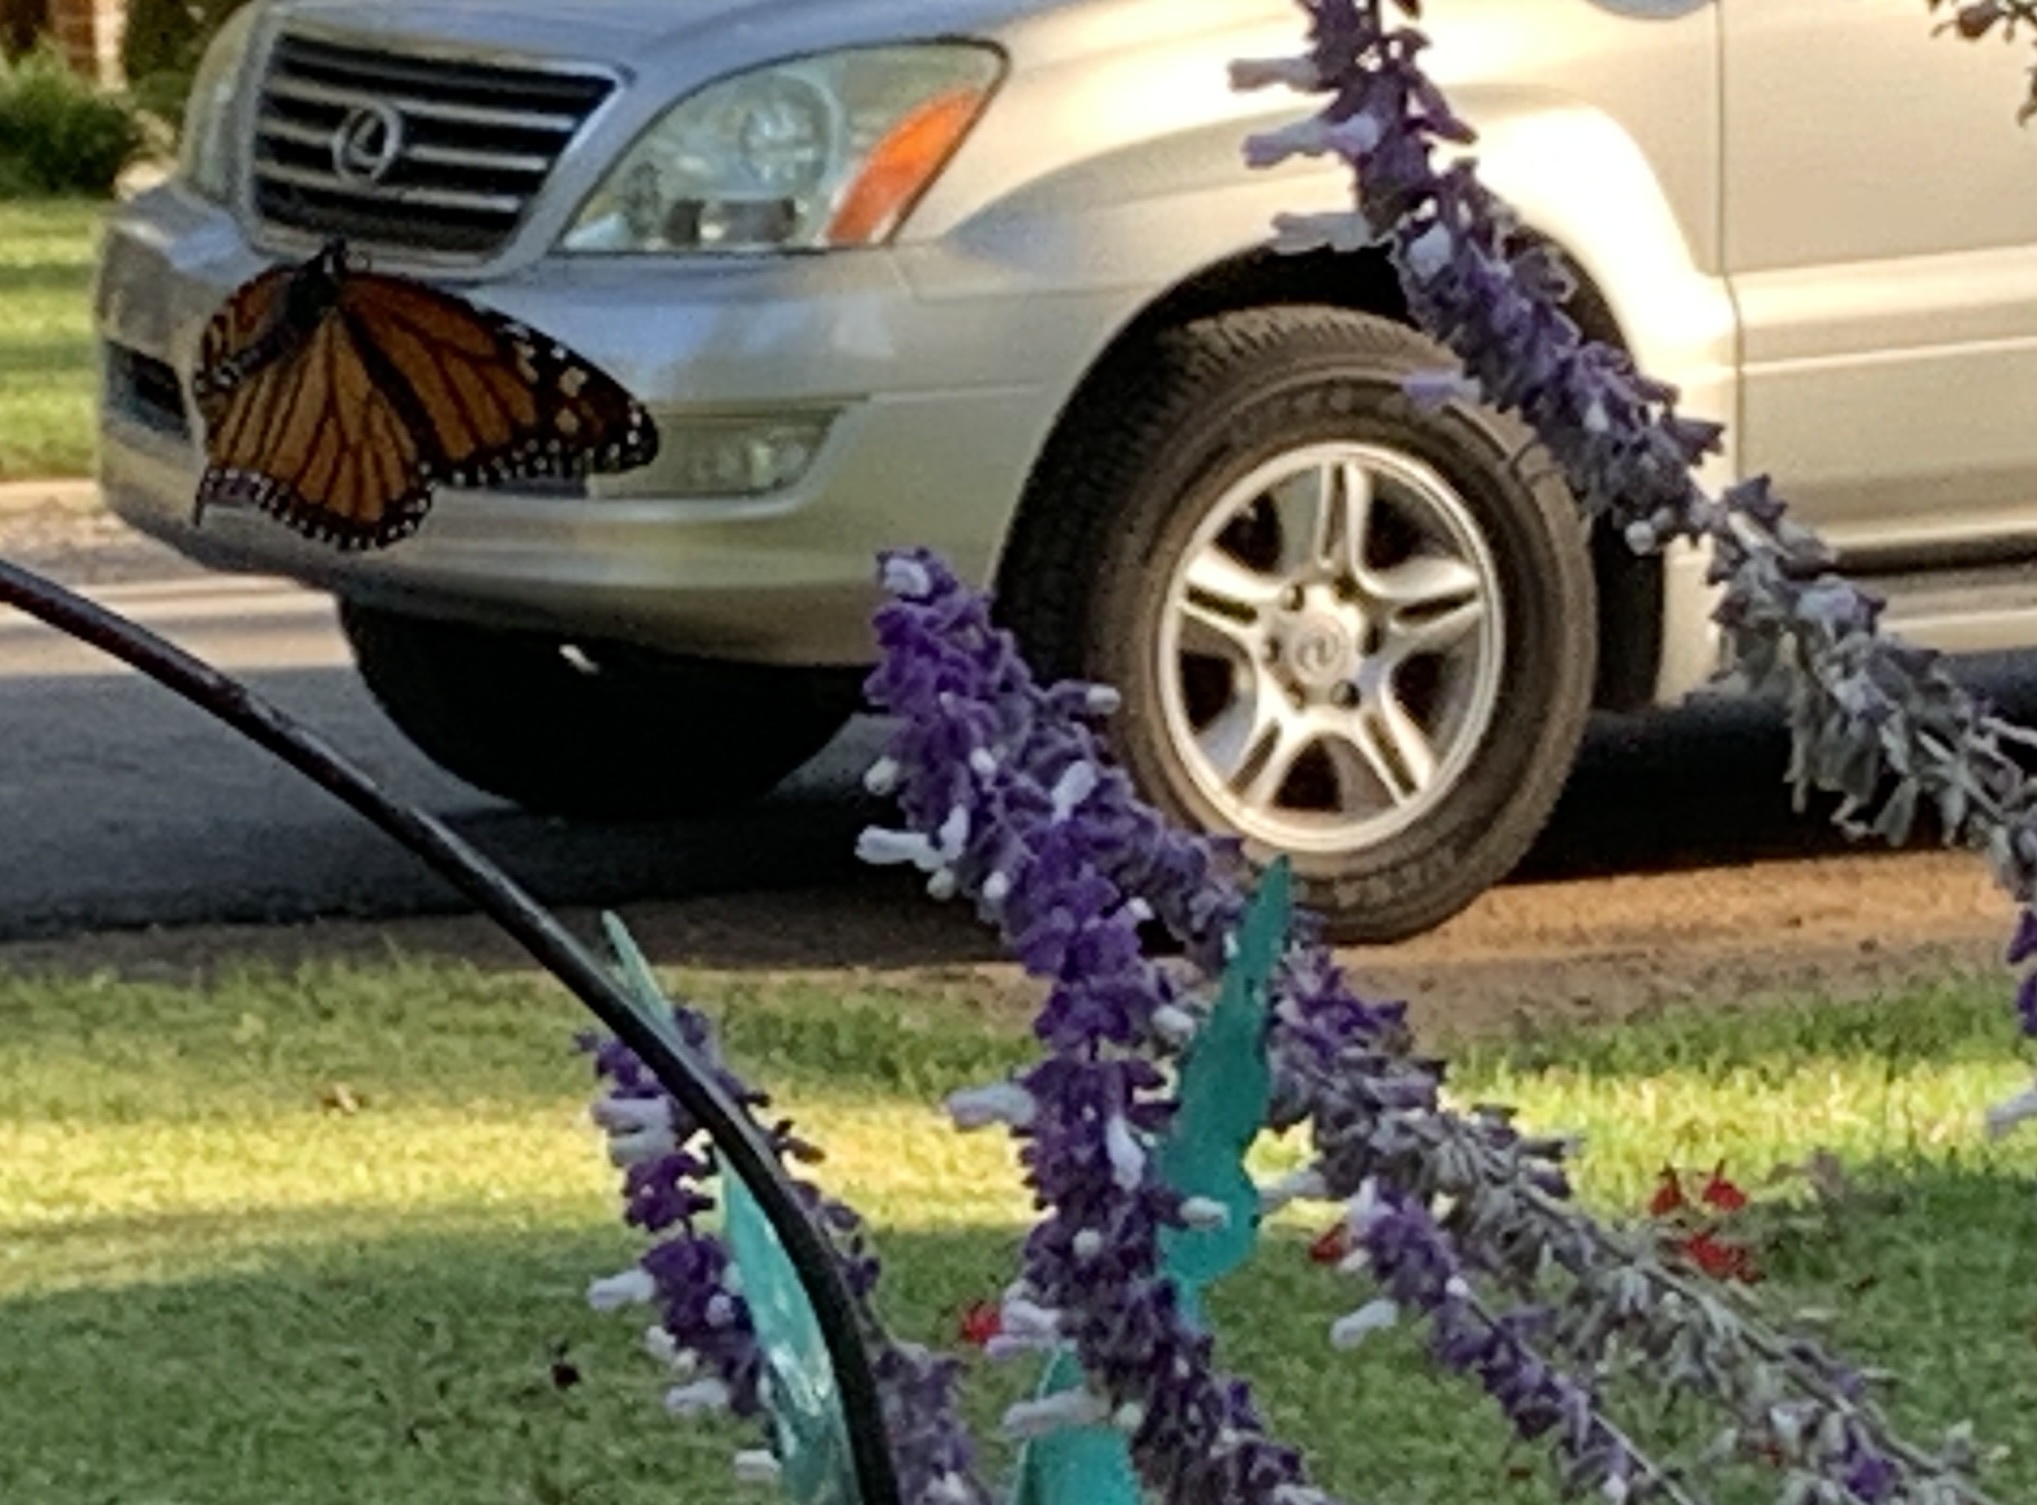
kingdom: Animalia
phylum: Arthropoda
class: Insecta
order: Lepidoptera
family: Nymphalidae
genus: Danaus
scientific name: Danaus plexippus
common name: Monarch
